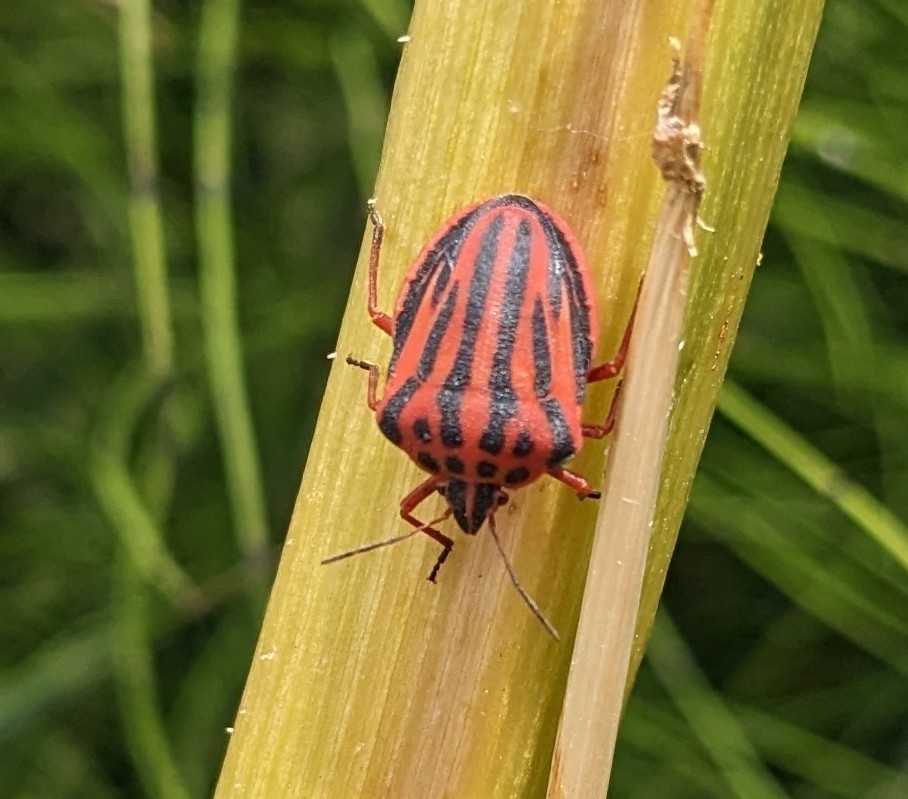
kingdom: Animalia
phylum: Arthropoda
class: Insecta
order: Hemiptera
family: Pentatomidae
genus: Graphosoma
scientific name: Graphosoma semipunctatum
